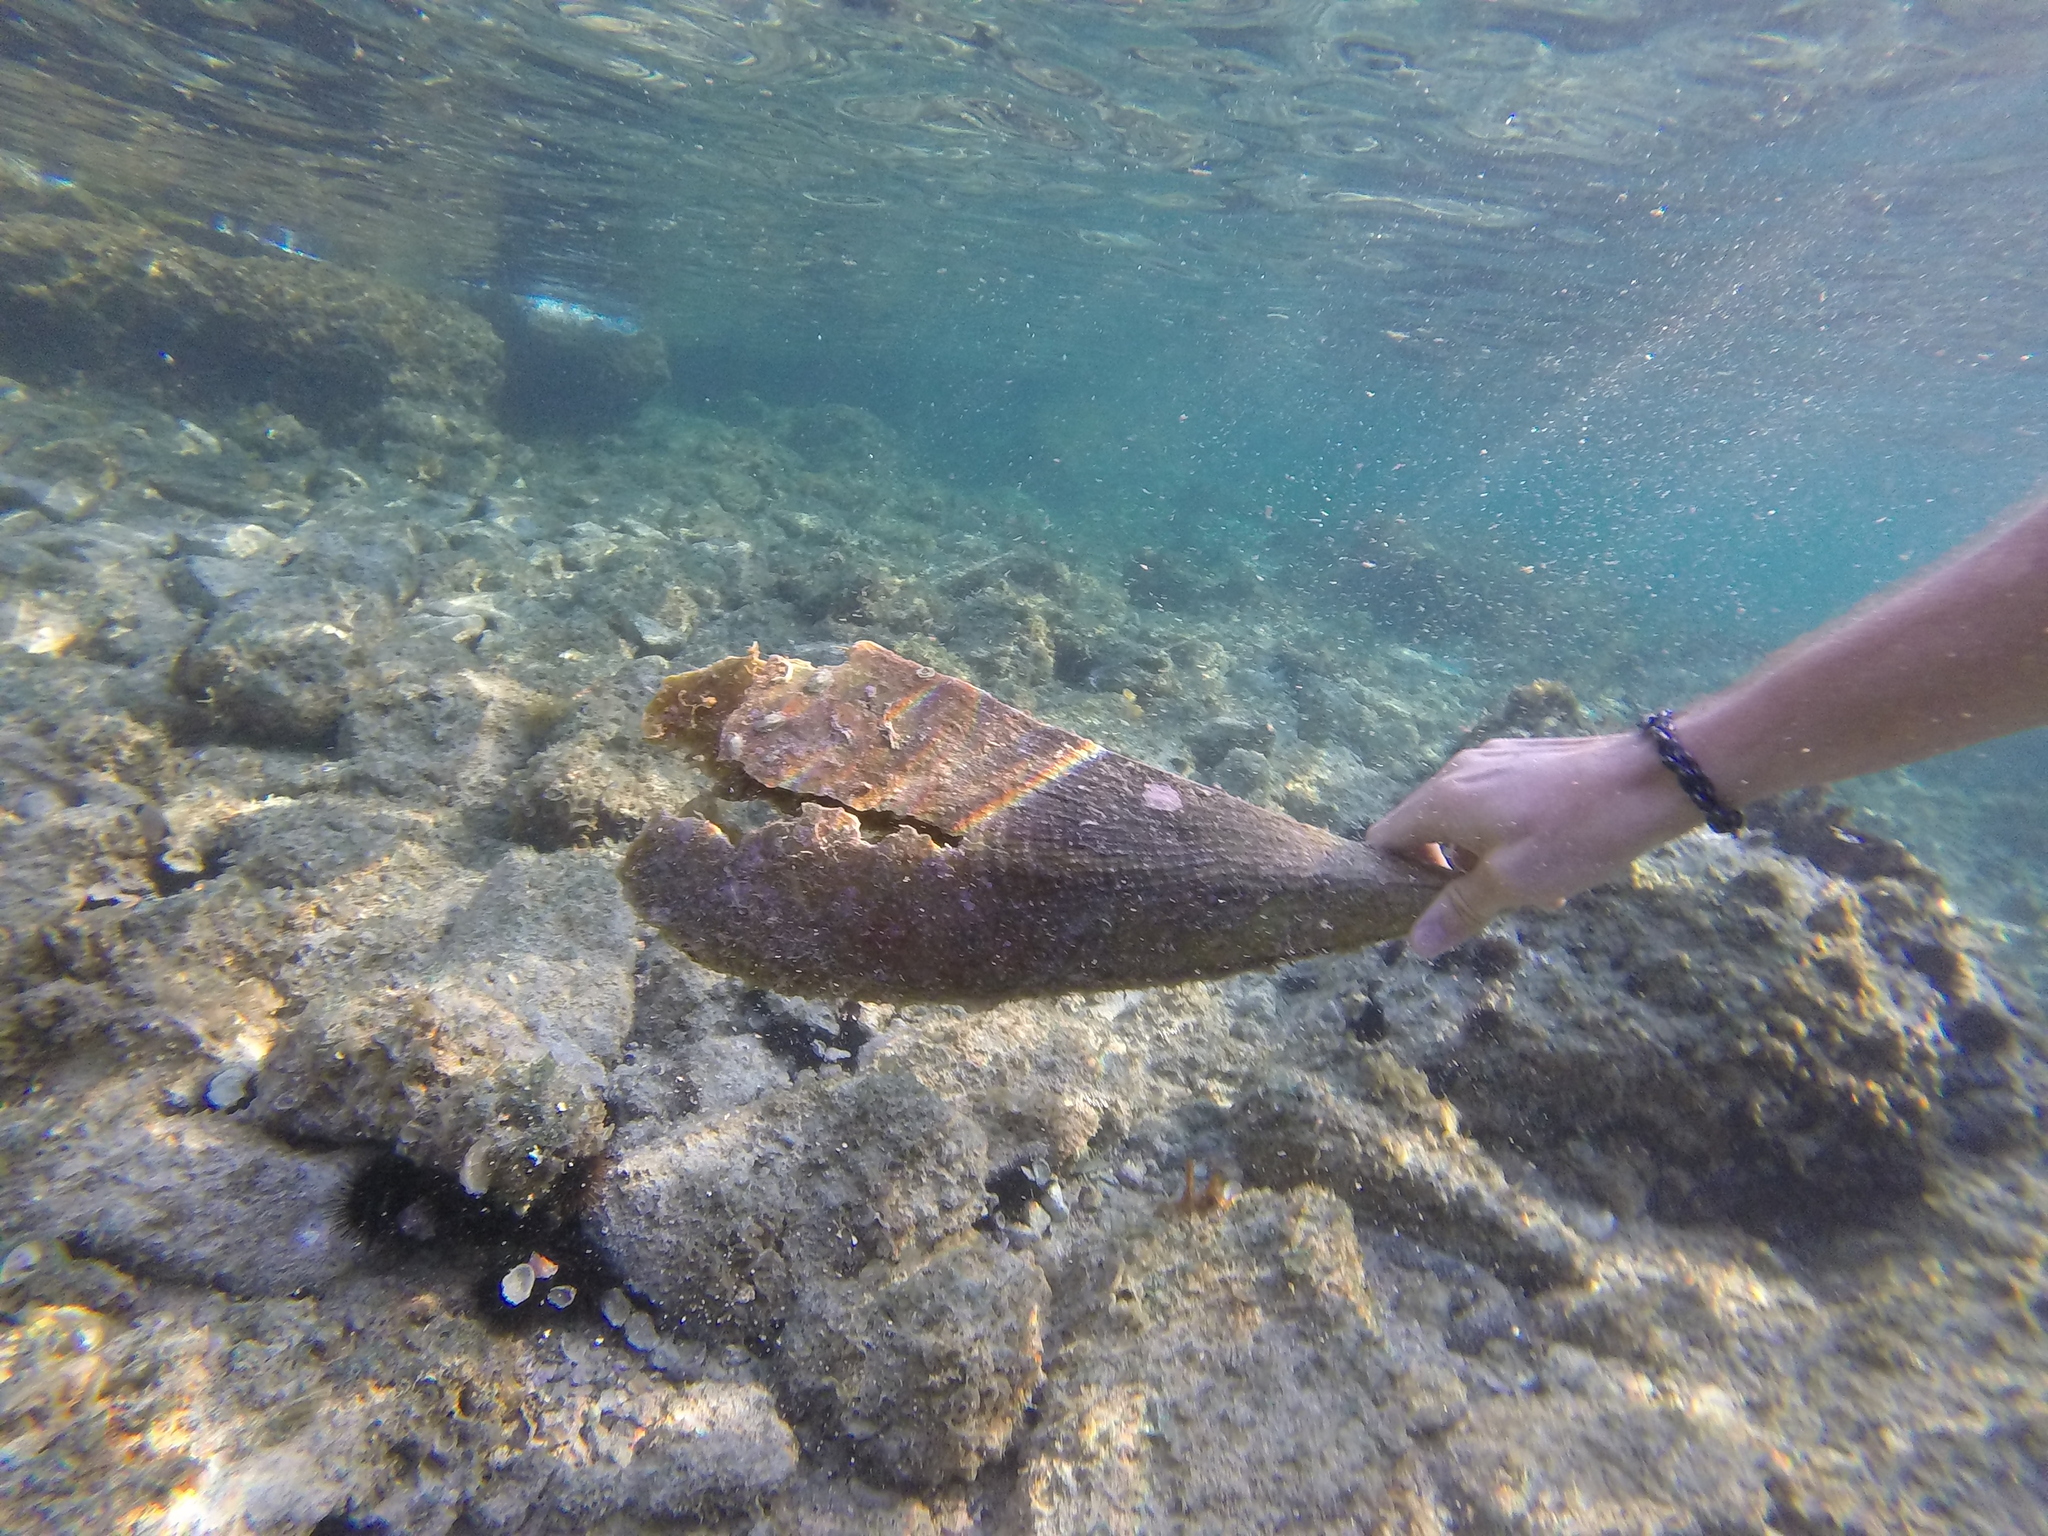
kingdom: Animalia
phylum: Mollusca
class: Bivalvia
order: Ostreida
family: Pinnidae
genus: Pinna
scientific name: Pinna nobilis
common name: Fan mussel
